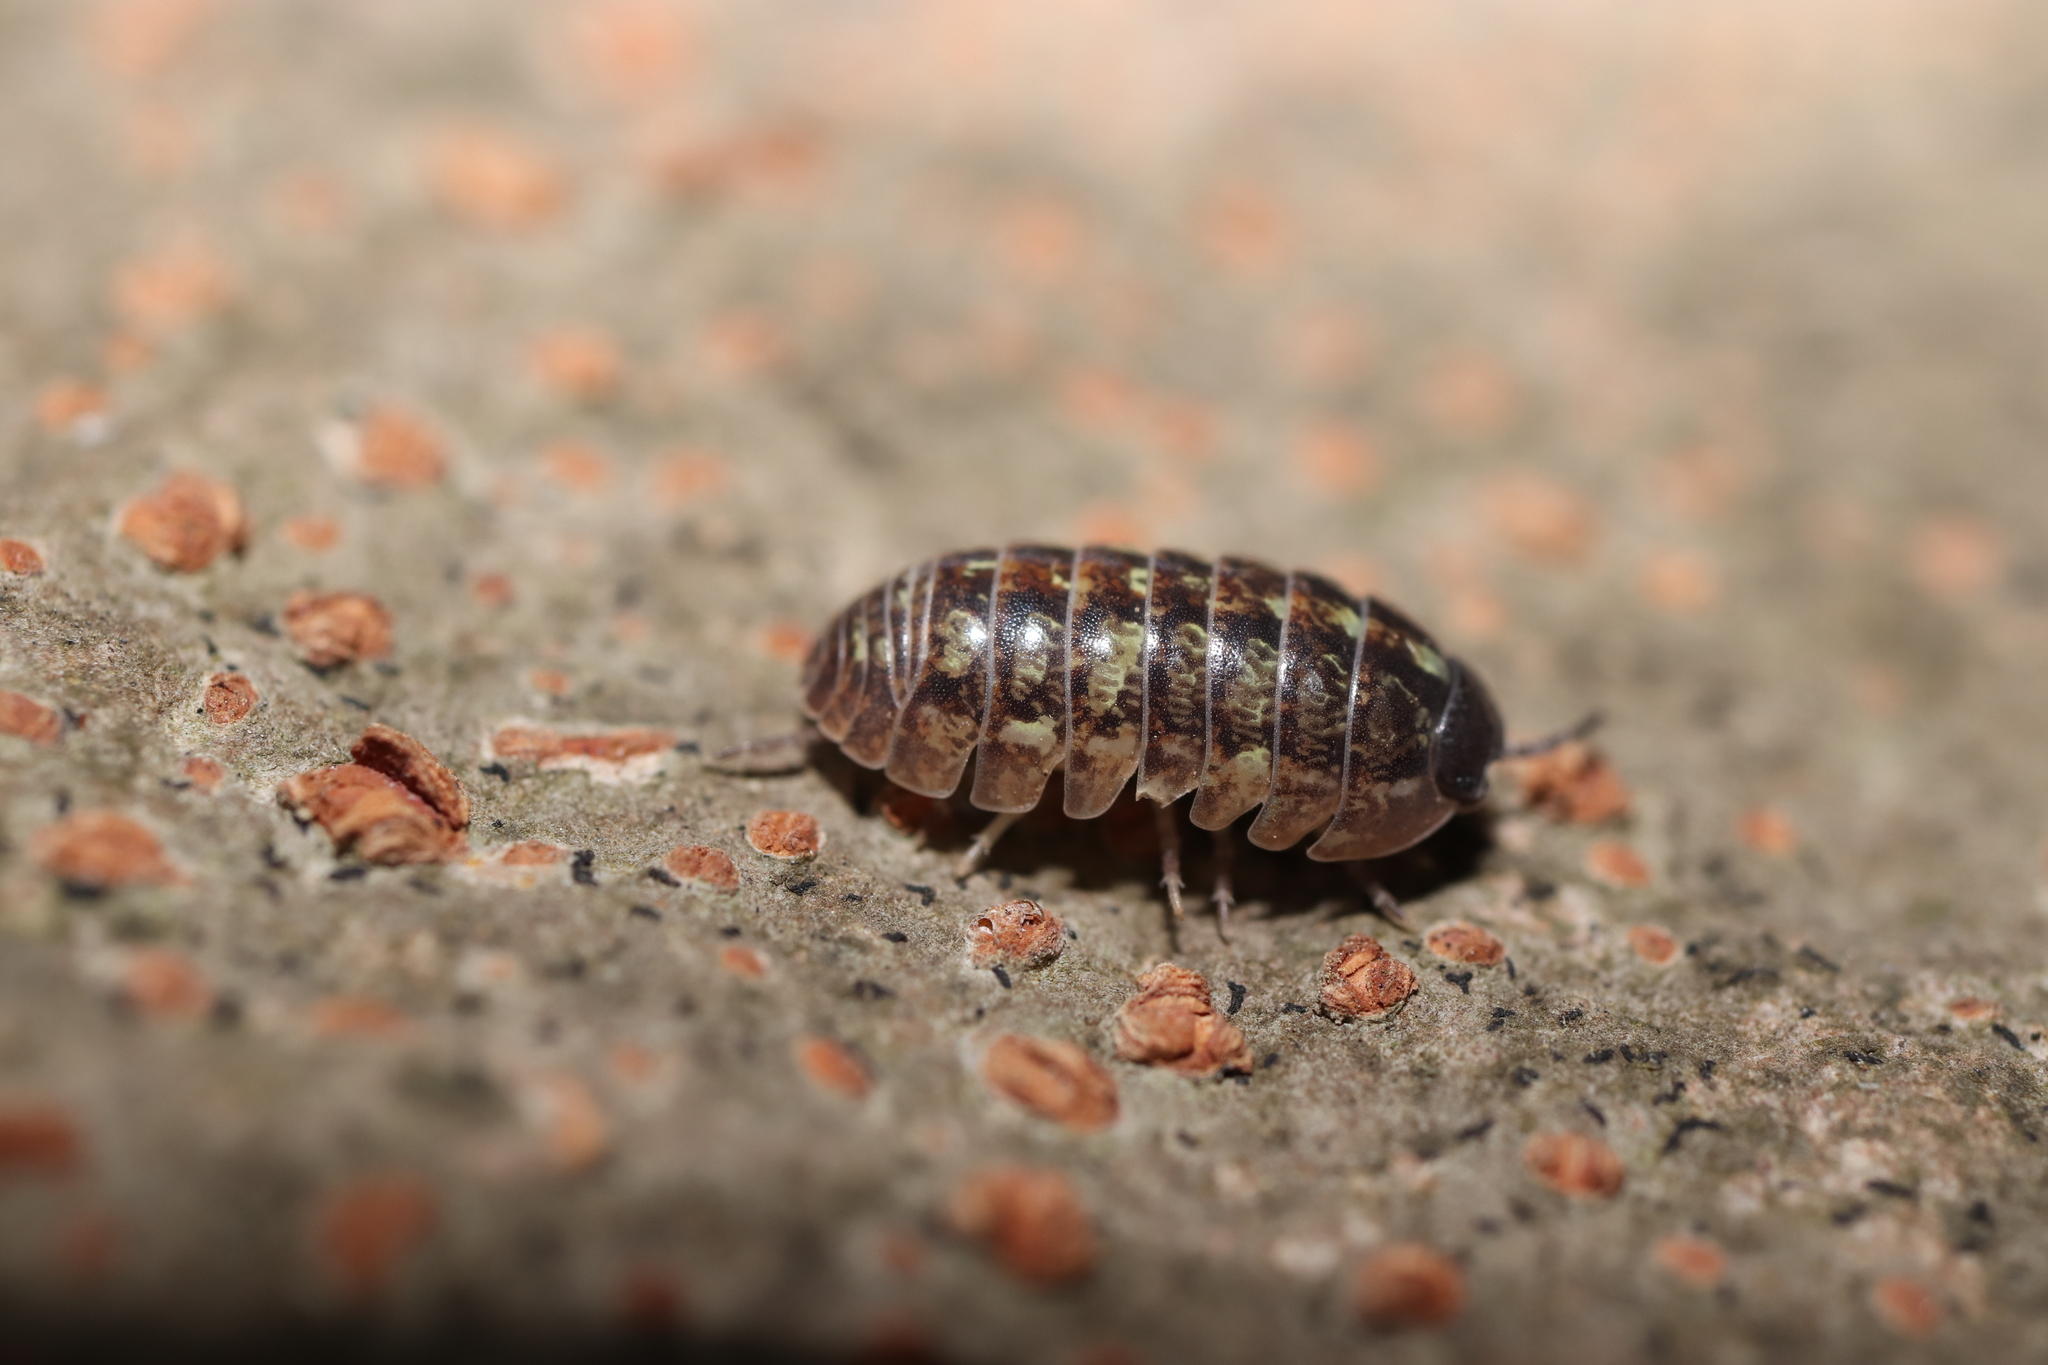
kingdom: Animalia
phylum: Arthropoda
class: Malacostraca
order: Isopoda
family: Armadillidiidae
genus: Armadillidium
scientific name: Armadillidium vulgare
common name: Common pill woodlouse
